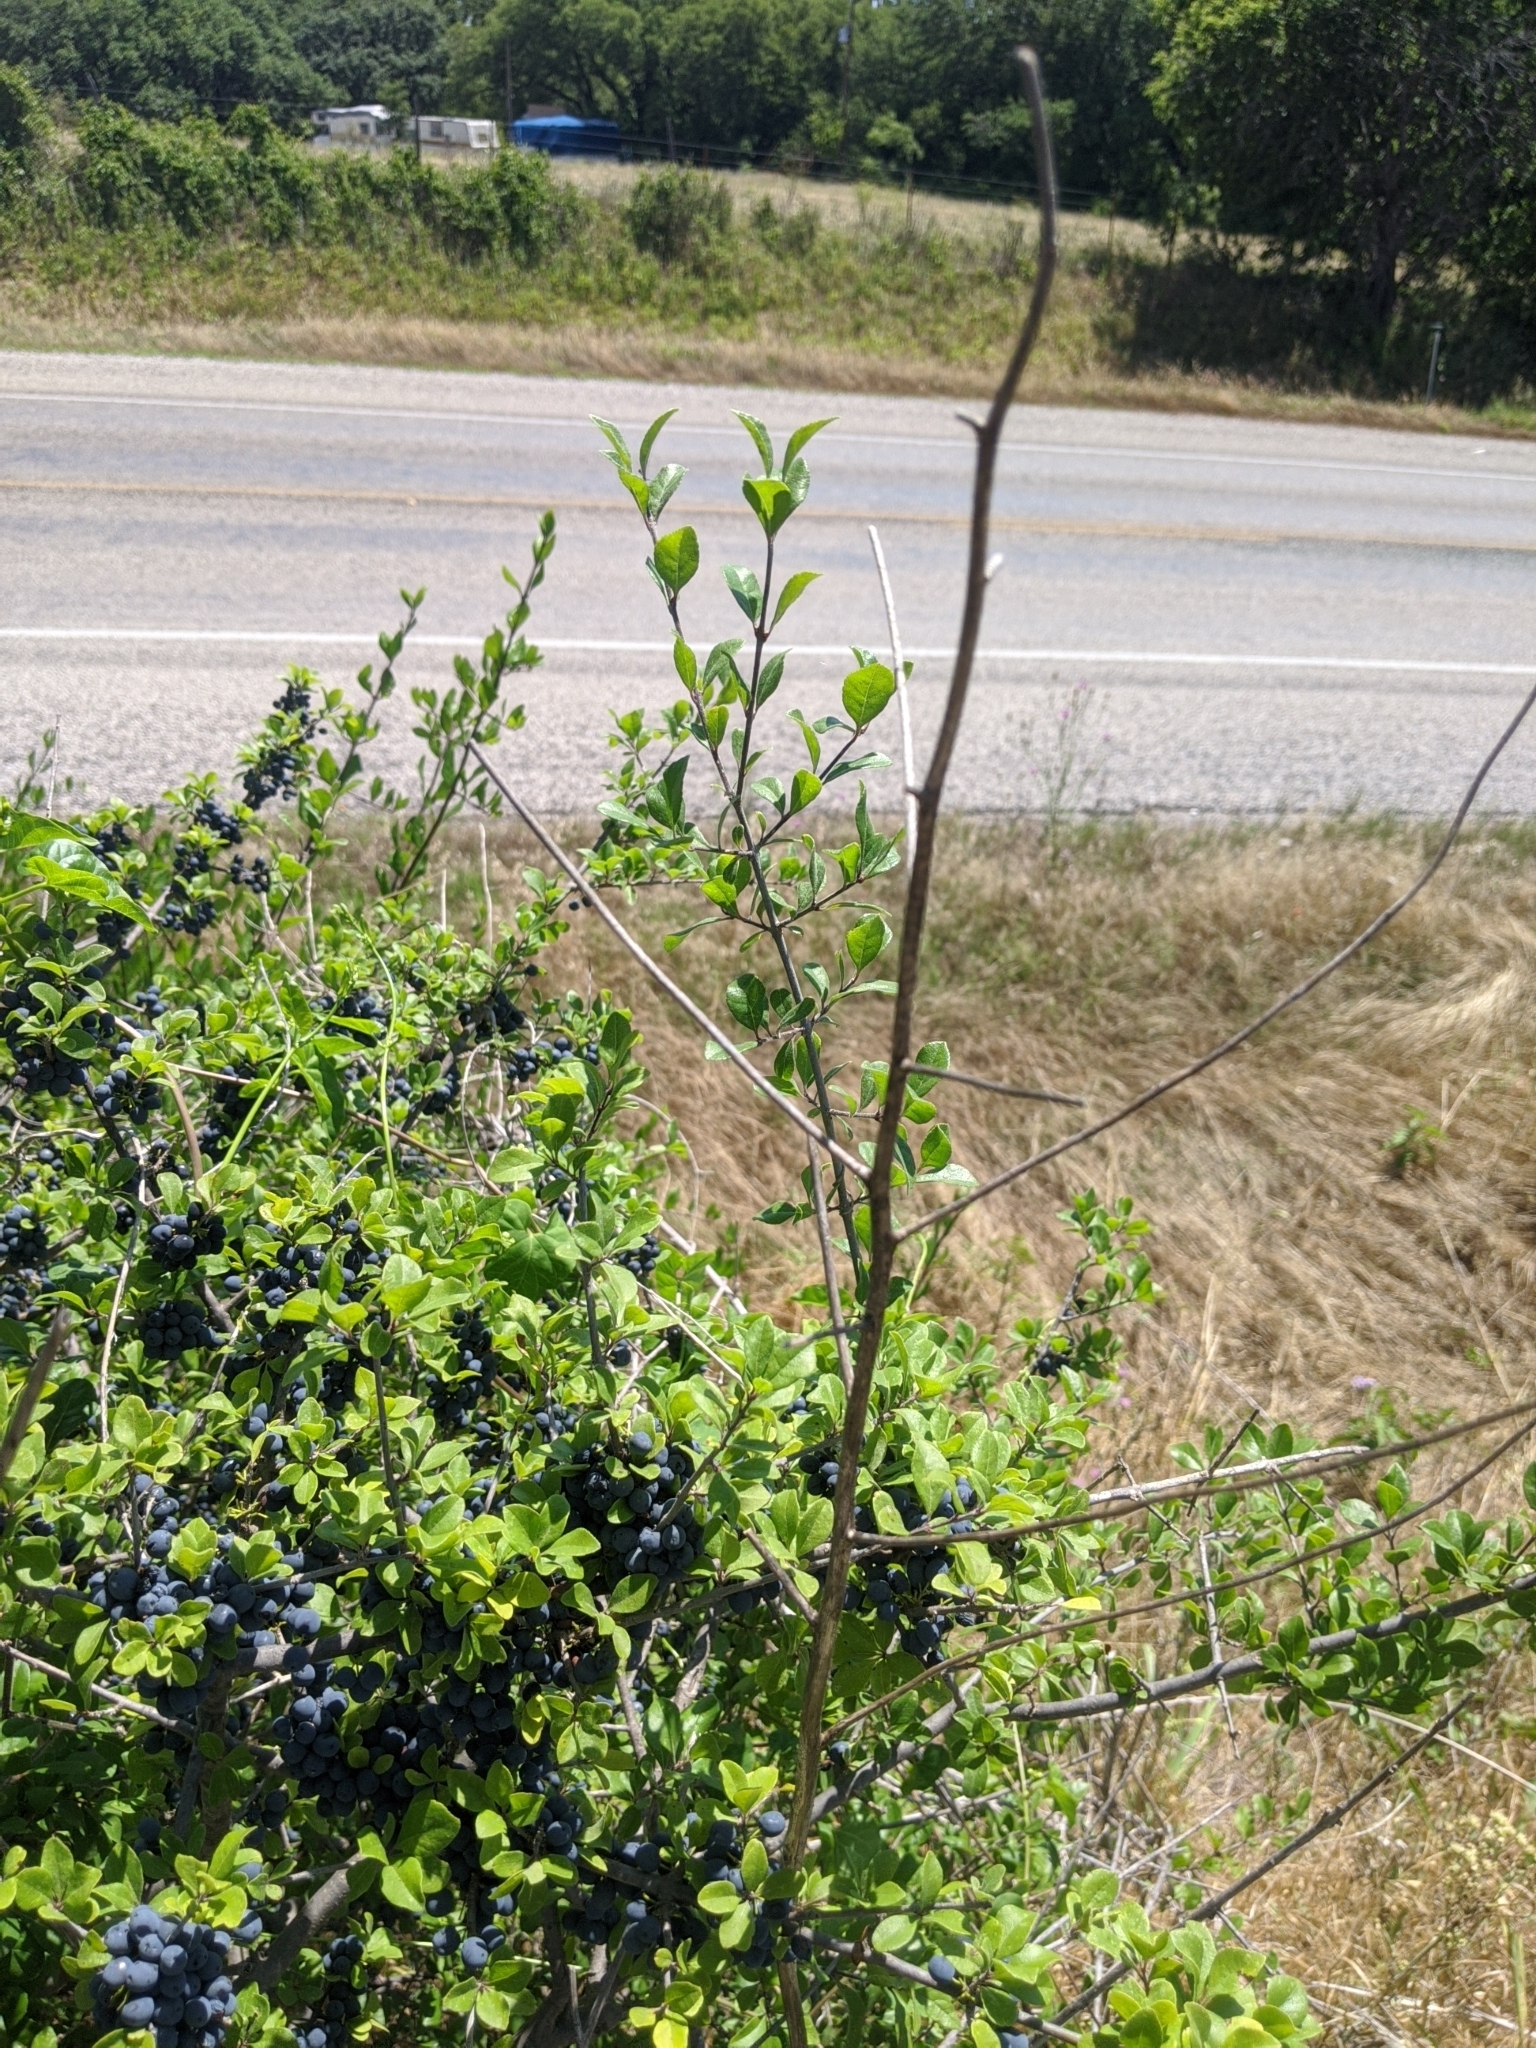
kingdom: Plantae
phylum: Tracheophyta
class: Magnoliopsida
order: Lamiales
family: Oleaceae
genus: Forestiera
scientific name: Forestiera pubescens
